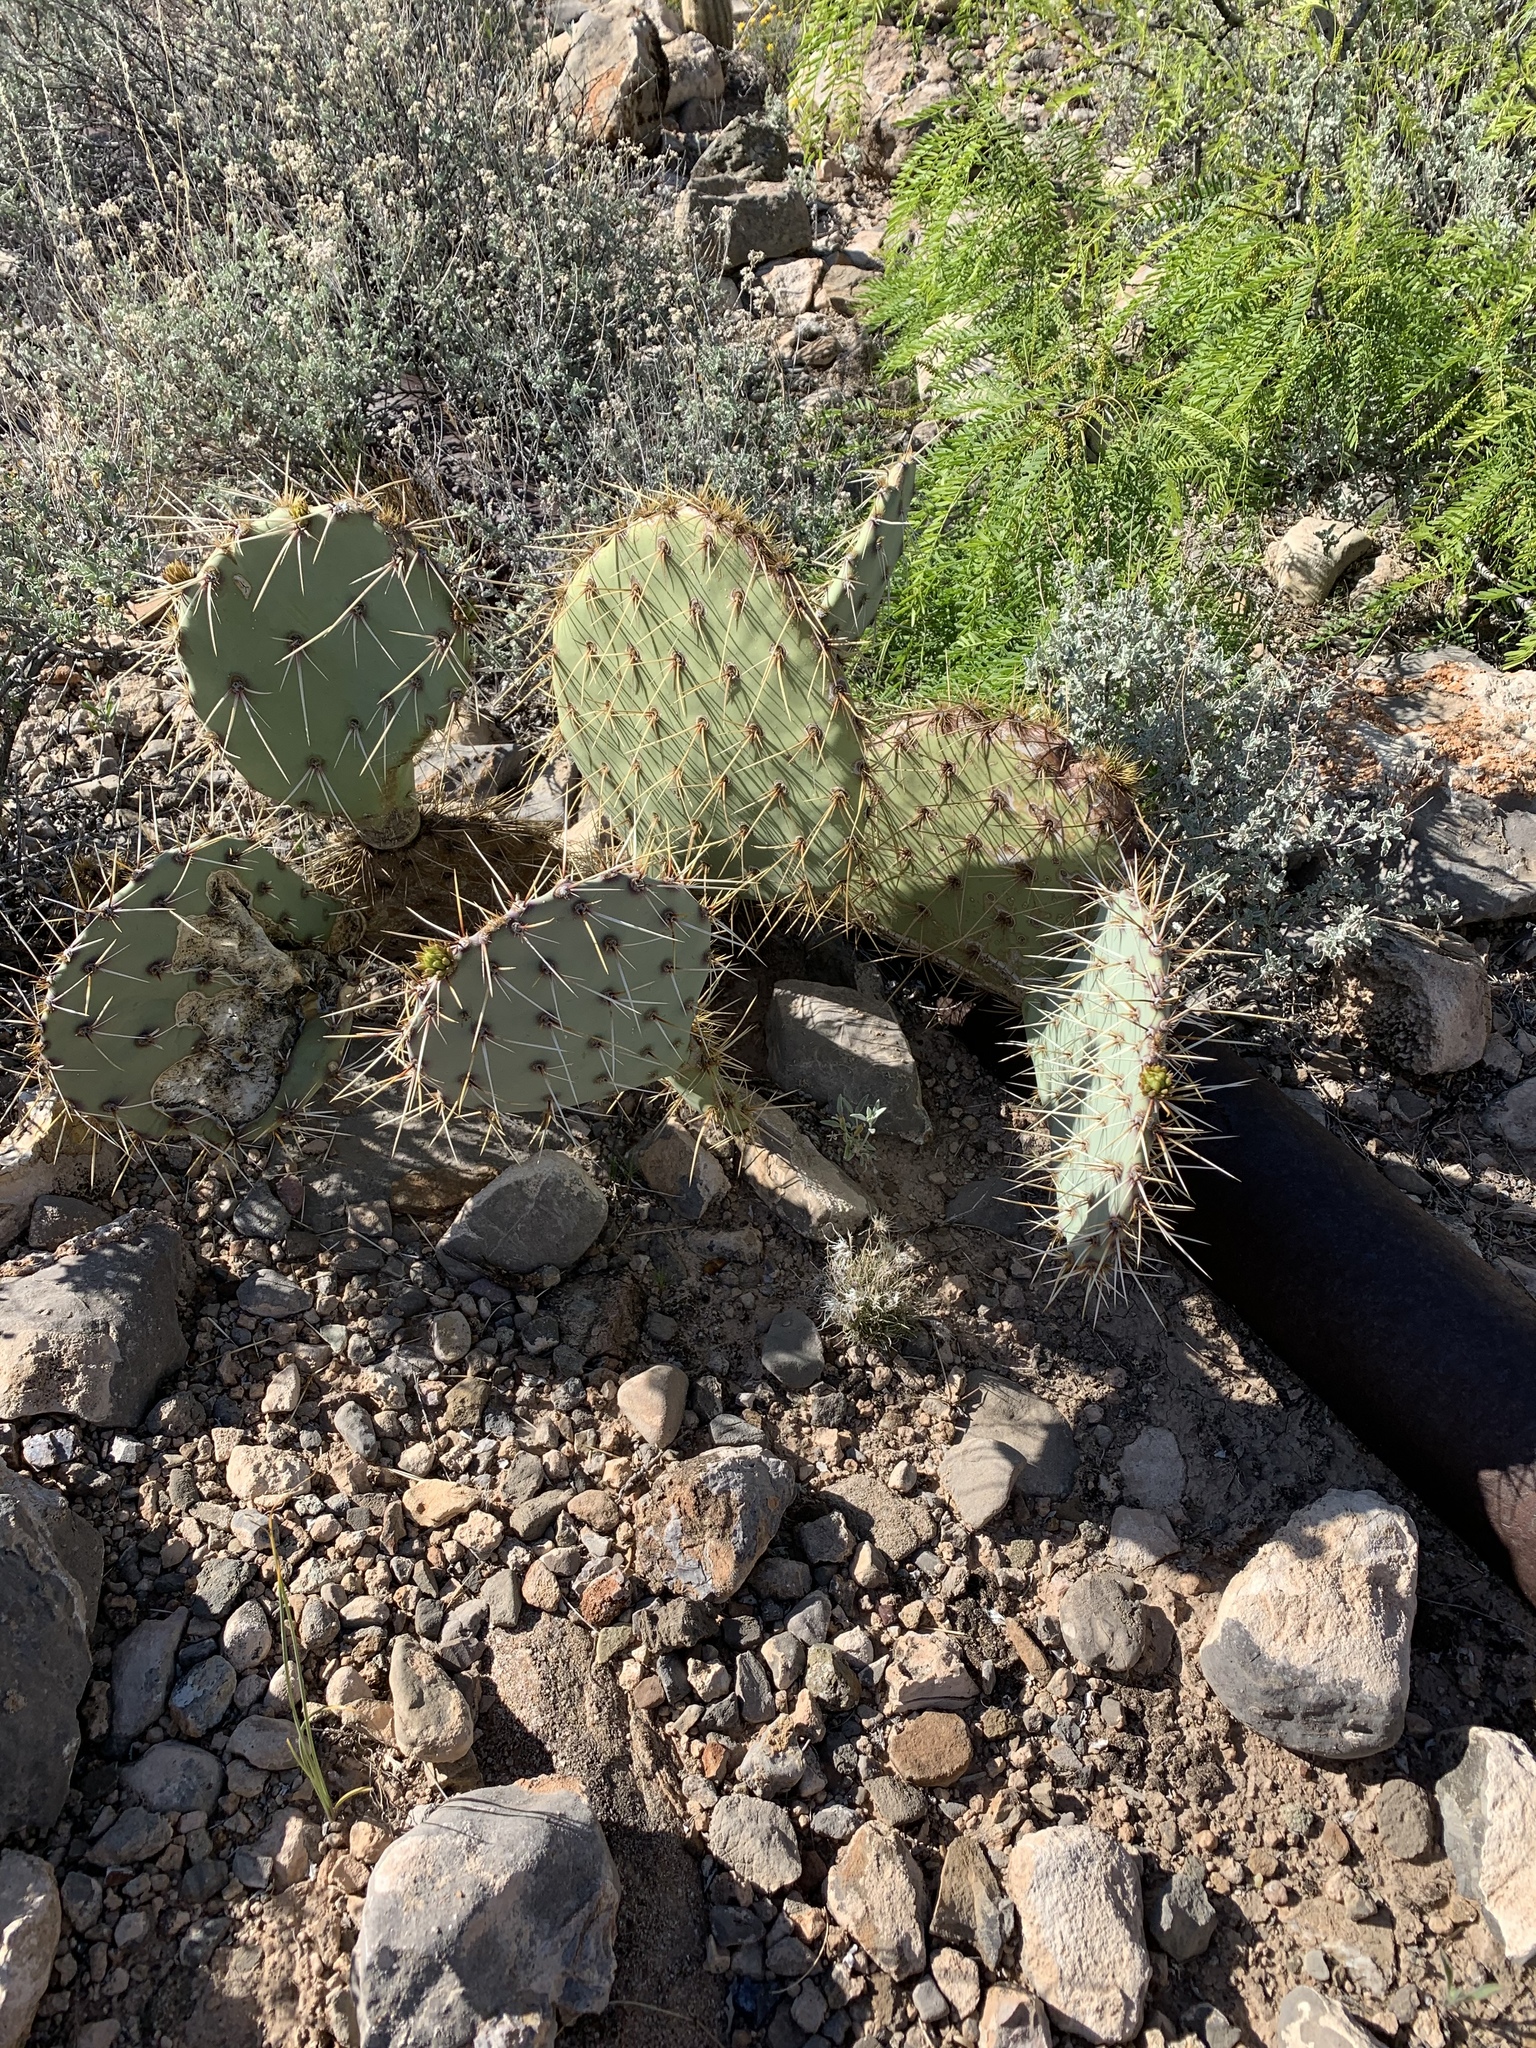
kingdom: Plantae
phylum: Tracheophyta
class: Magnoliopsida
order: Caryophyllales
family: Cactaceae
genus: Opuntia
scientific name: Opuntia engelmannii
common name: Cactus-apple
